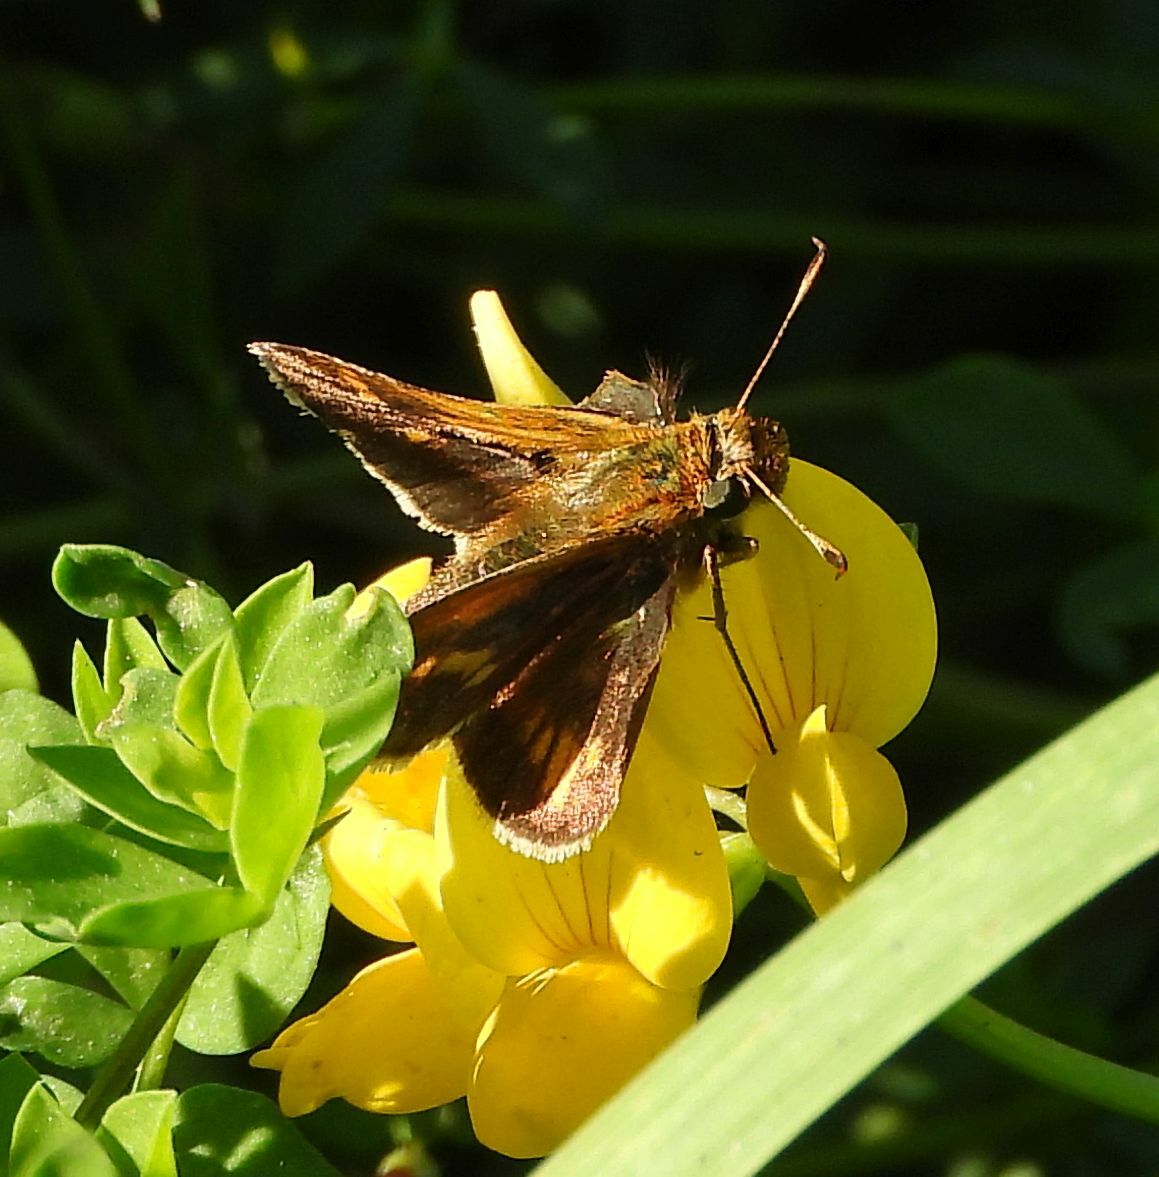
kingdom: Animalia
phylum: Arthropoda
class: Insecta
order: Lepidoptera
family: Hesperiidae
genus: Polites
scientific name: Polites coras
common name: Peck's skipper
